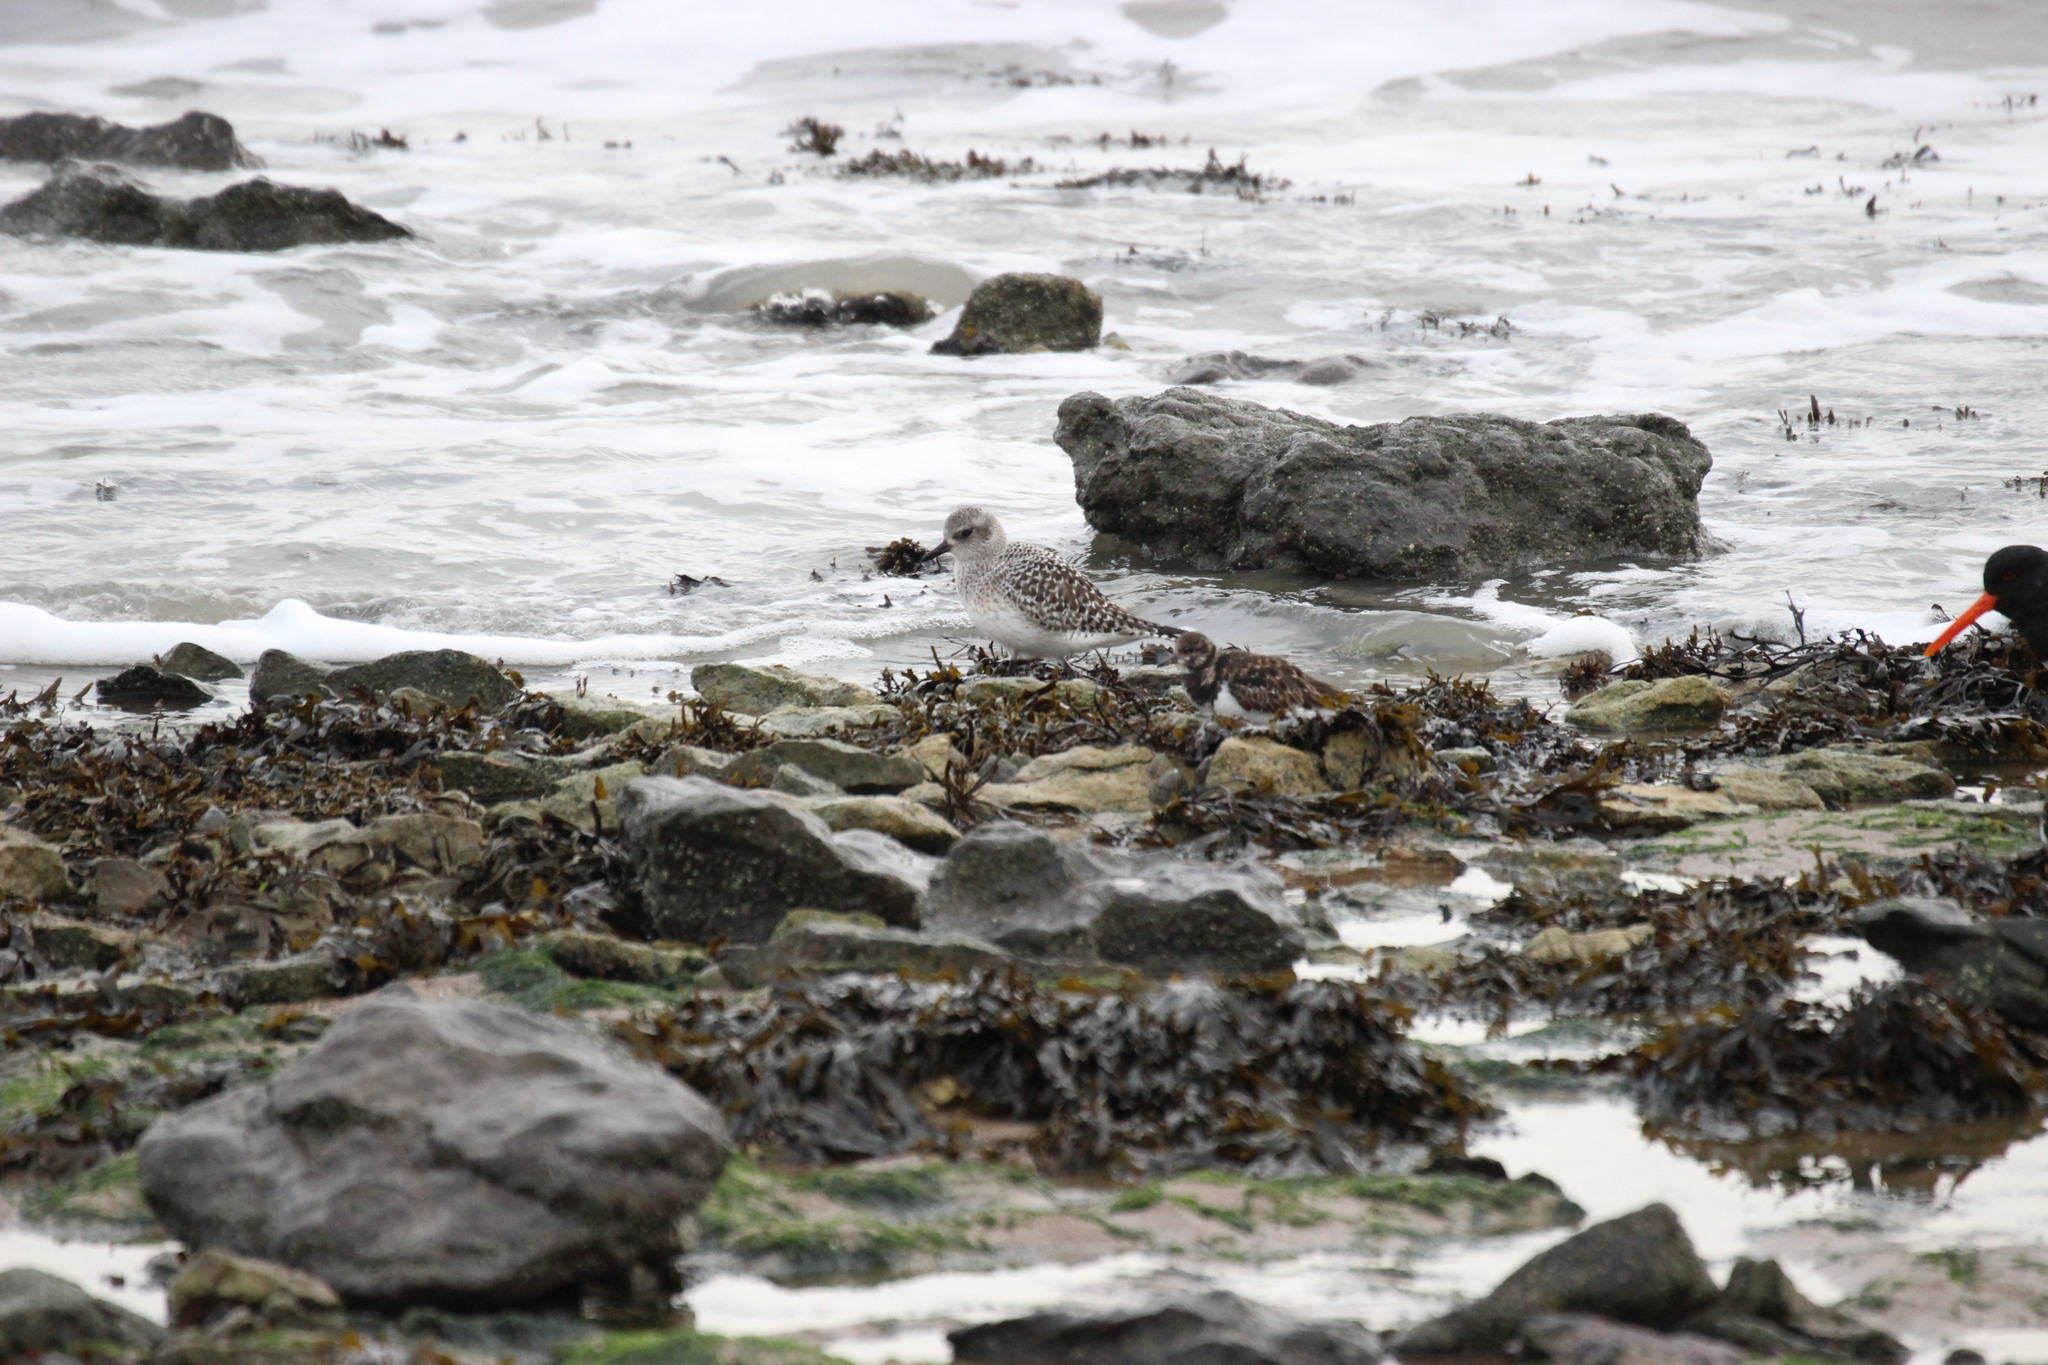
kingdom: Animalia
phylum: Chordata
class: Aves
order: Charadriiformes
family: Charadriidae
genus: Pluvialis
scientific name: Pluvialis squatarola
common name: Grey plover
